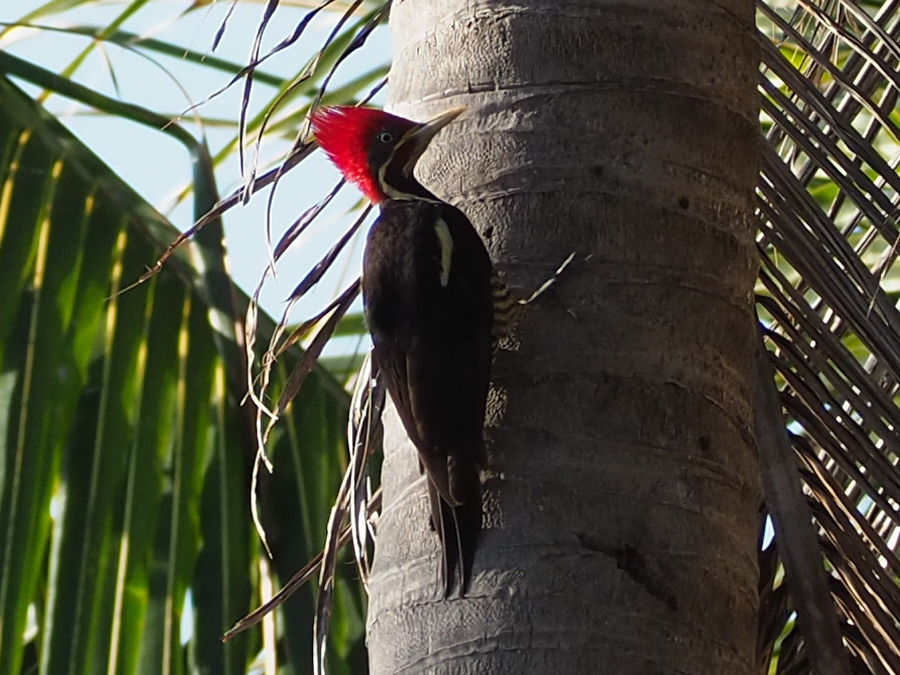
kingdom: Animalia
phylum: Chordata
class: Aves
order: Piciformes
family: Picidae
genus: Dryocopus
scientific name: Dryocopus lineatus
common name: Lineated woodpecker
